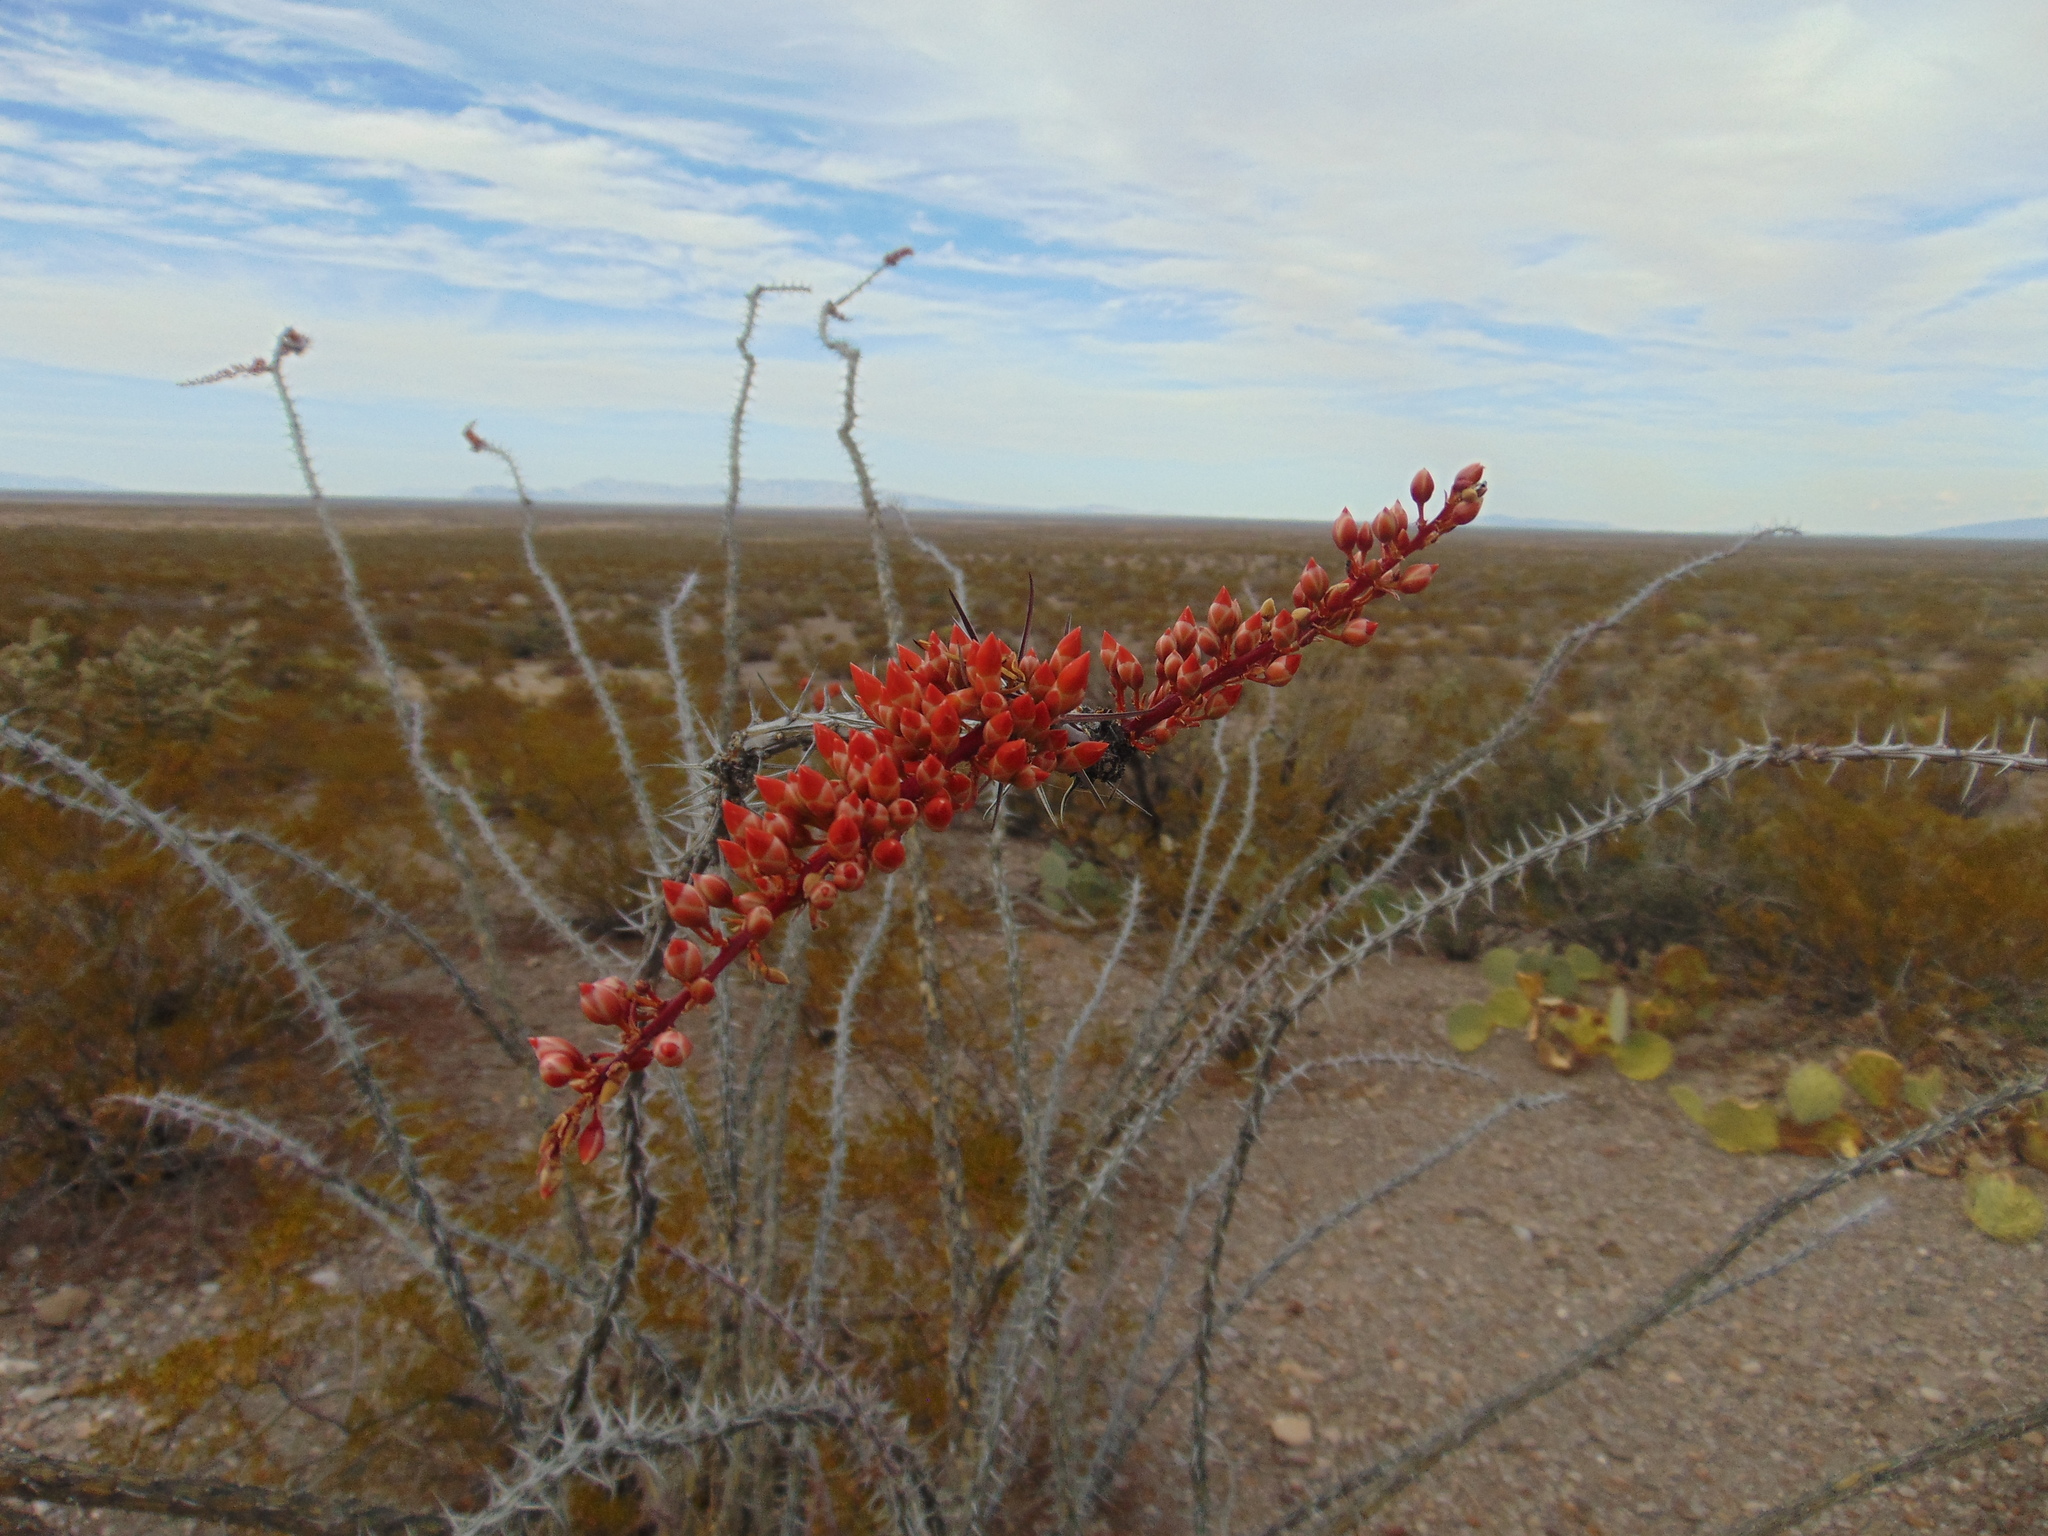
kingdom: Plantae
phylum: Tracheophyta
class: Magnoliopsida
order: Ericales
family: Fouquieriaceae
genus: Fouquieria
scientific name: Fouquieria splendens
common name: Vine-cactus
